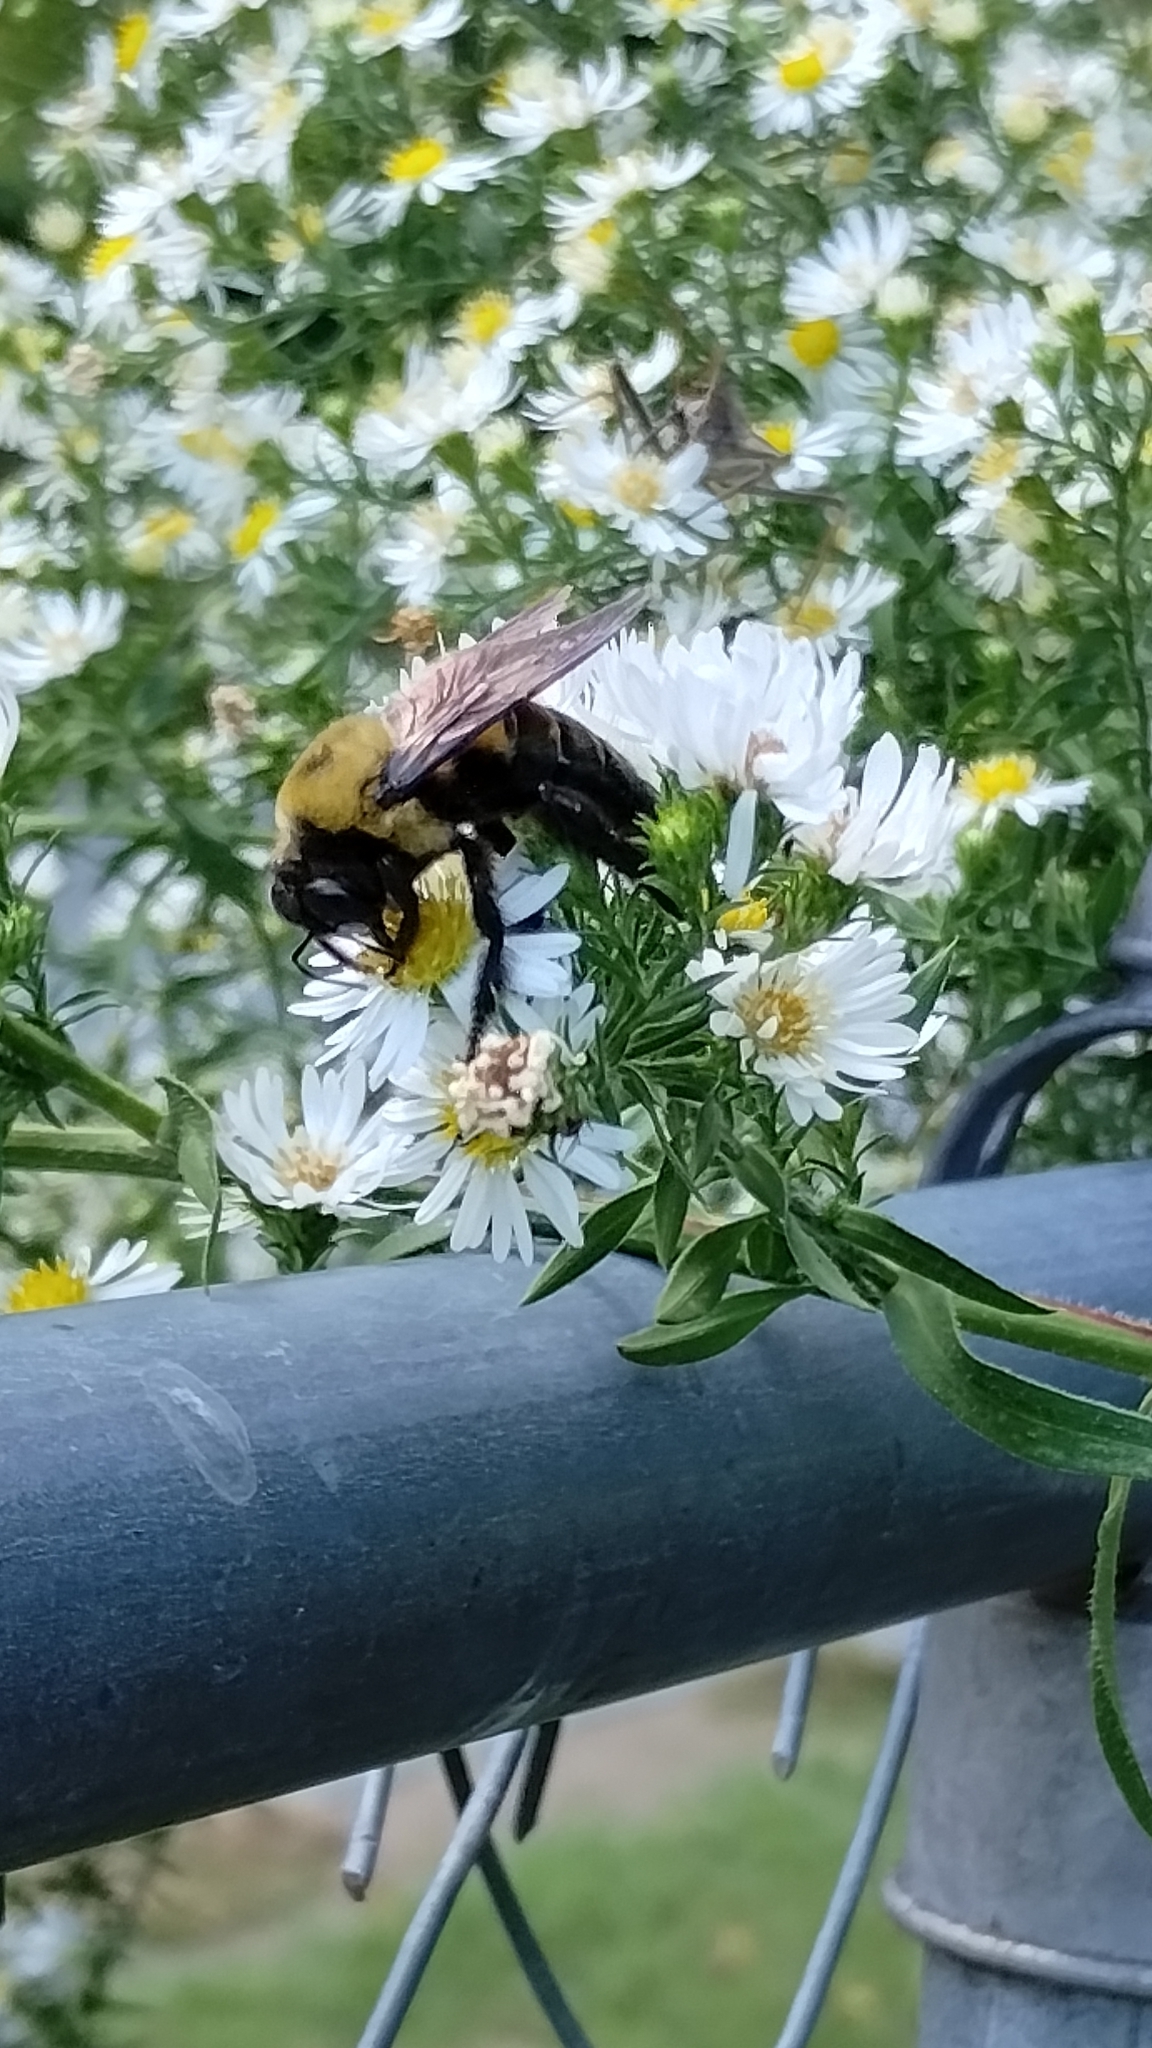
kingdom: Animalia
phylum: Arthropoda
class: Insecta
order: Hymenoptera
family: Apidae
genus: Xylocopa
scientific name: Xylocopa virginica
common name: Carpenter bee
